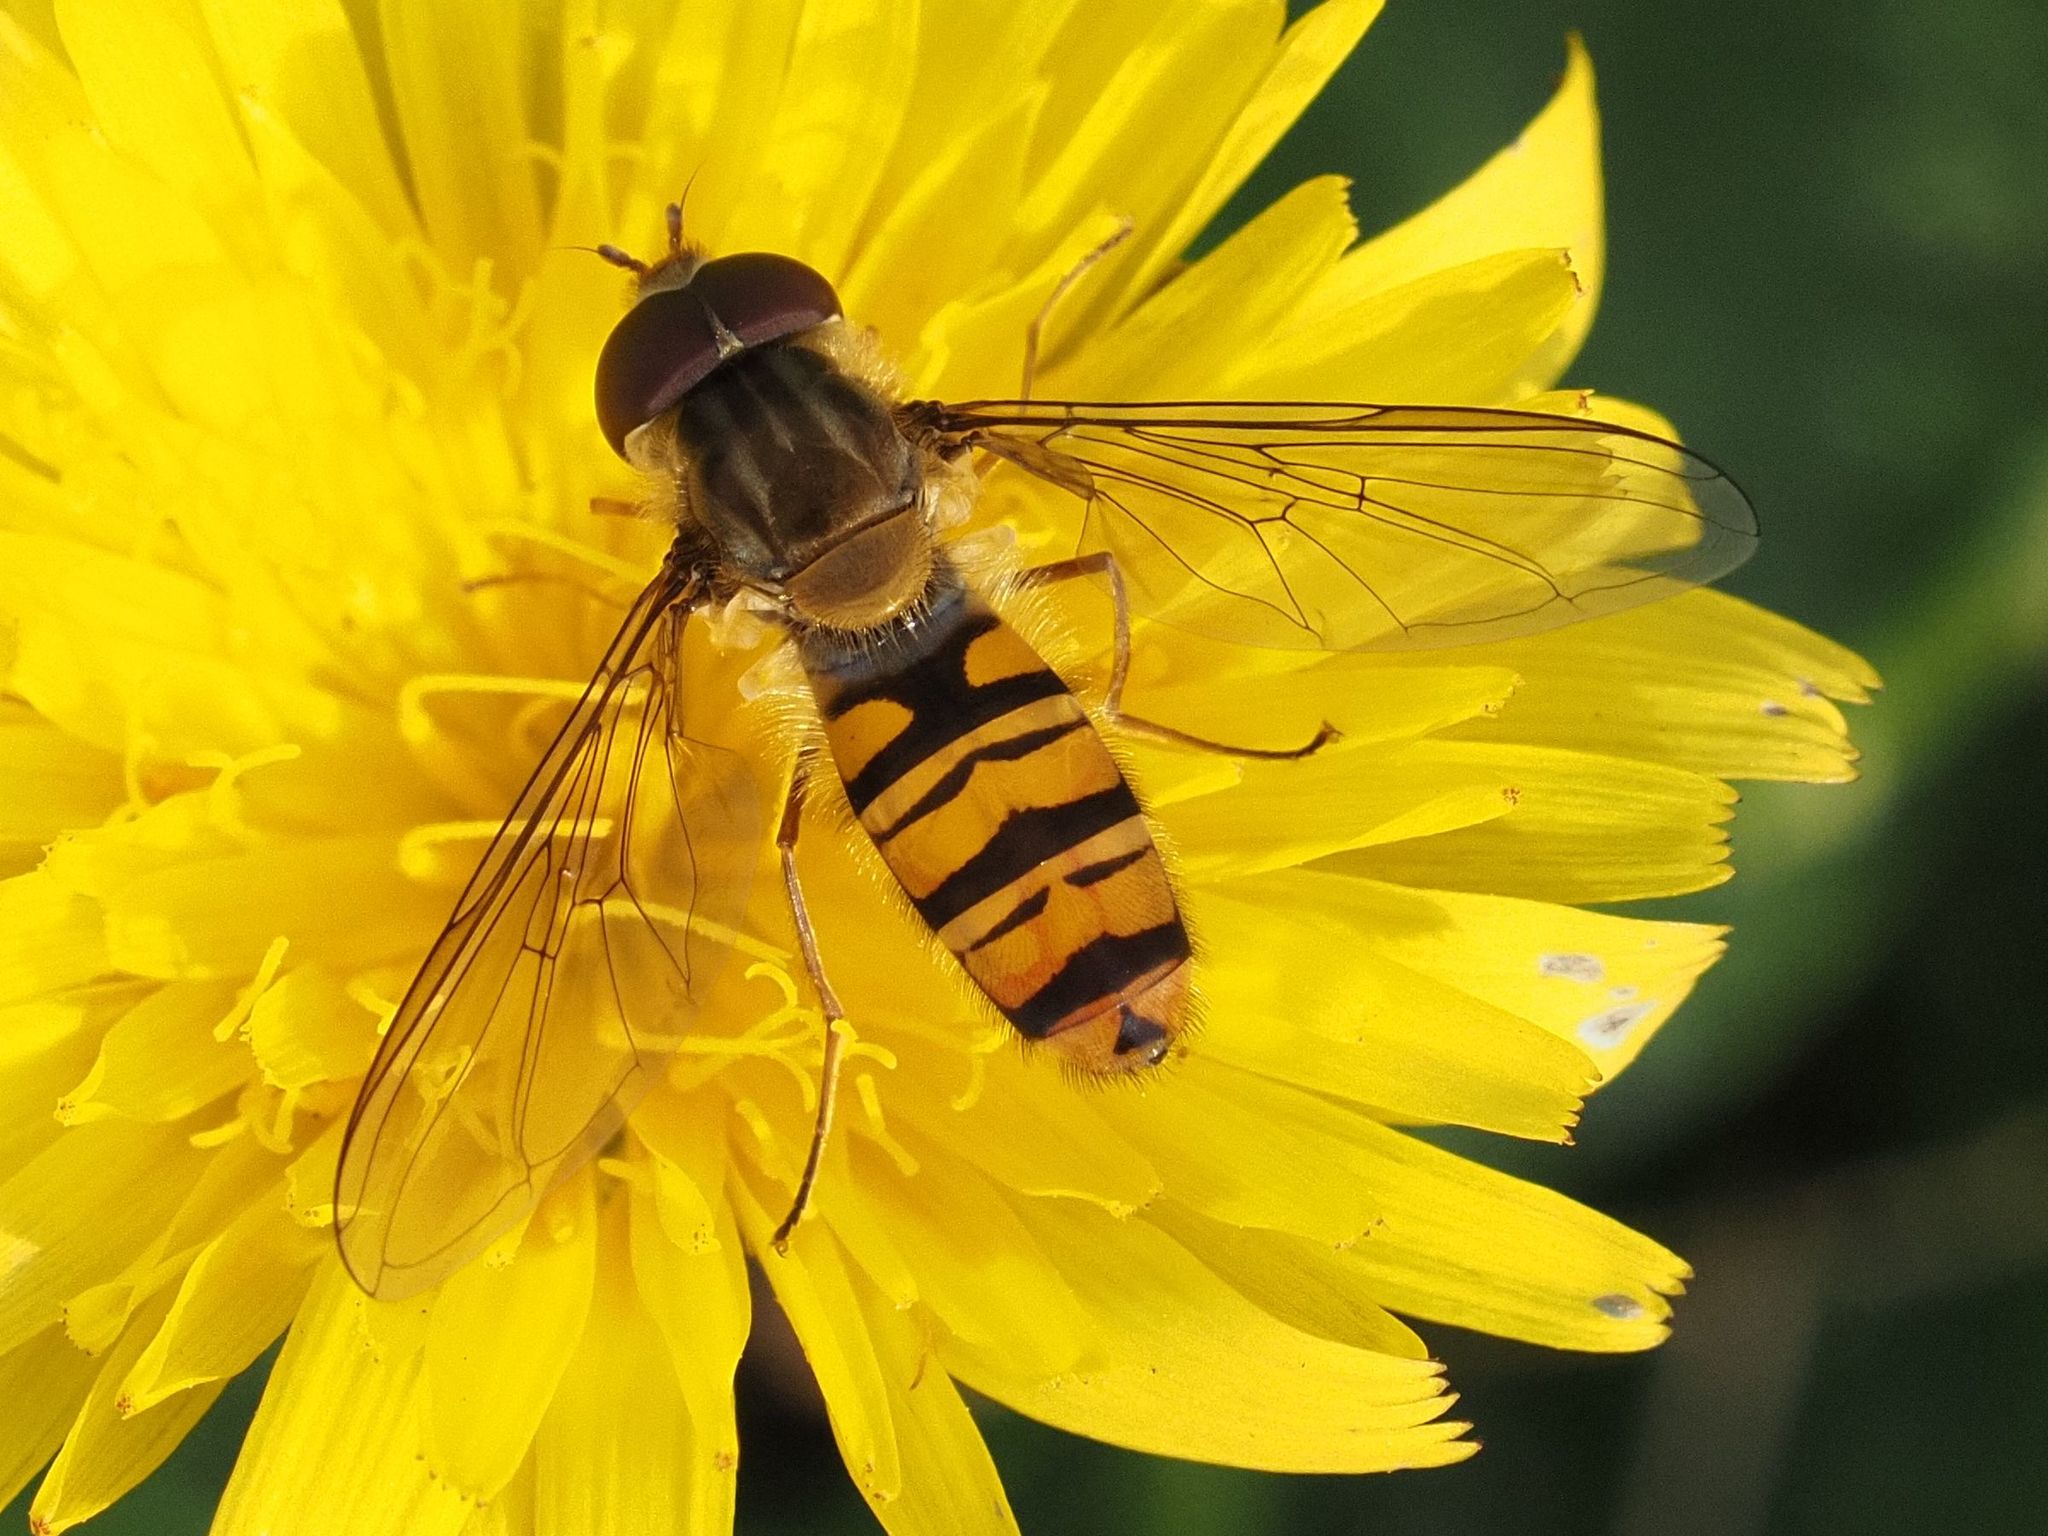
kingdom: Animalia
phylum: Arthropoda
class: Insecta
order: Diptera
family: Syrphidae
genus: Episyrphus
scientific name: Episyrphus balteatus
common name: Marmalade hoverfly
